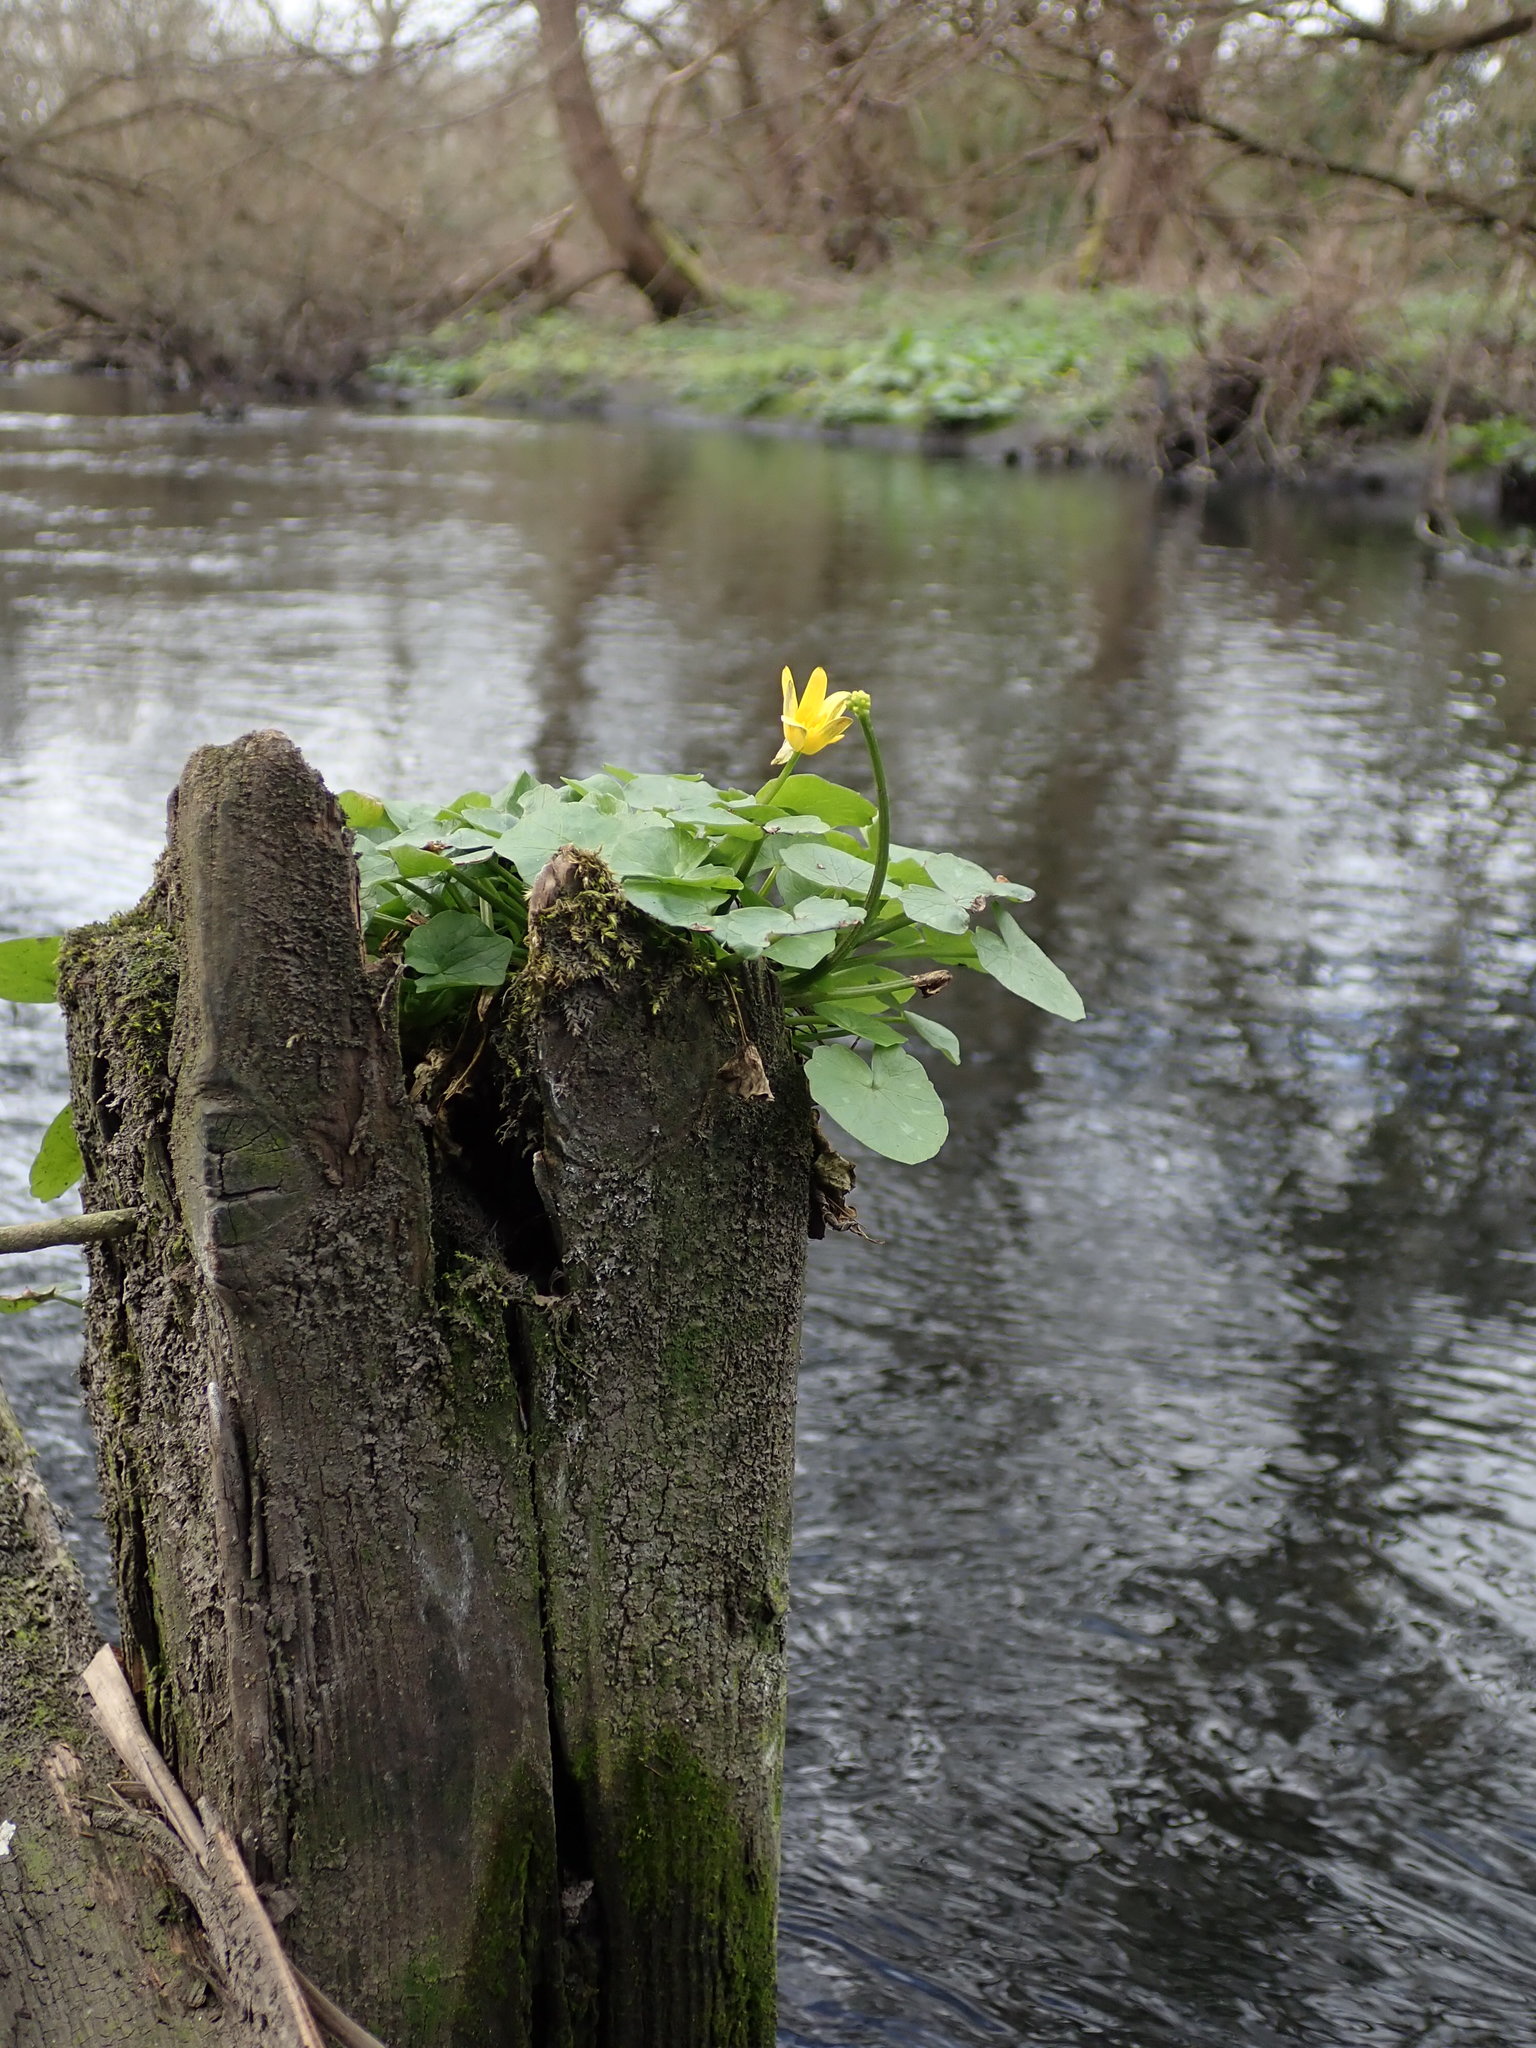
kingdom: Plantae
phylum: Tracheophyta
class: Magnoliopsida
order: Ranunculales
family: Ranunculaceae
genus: Ficaria
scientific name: Ficaria verna
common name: Lesser celandine
